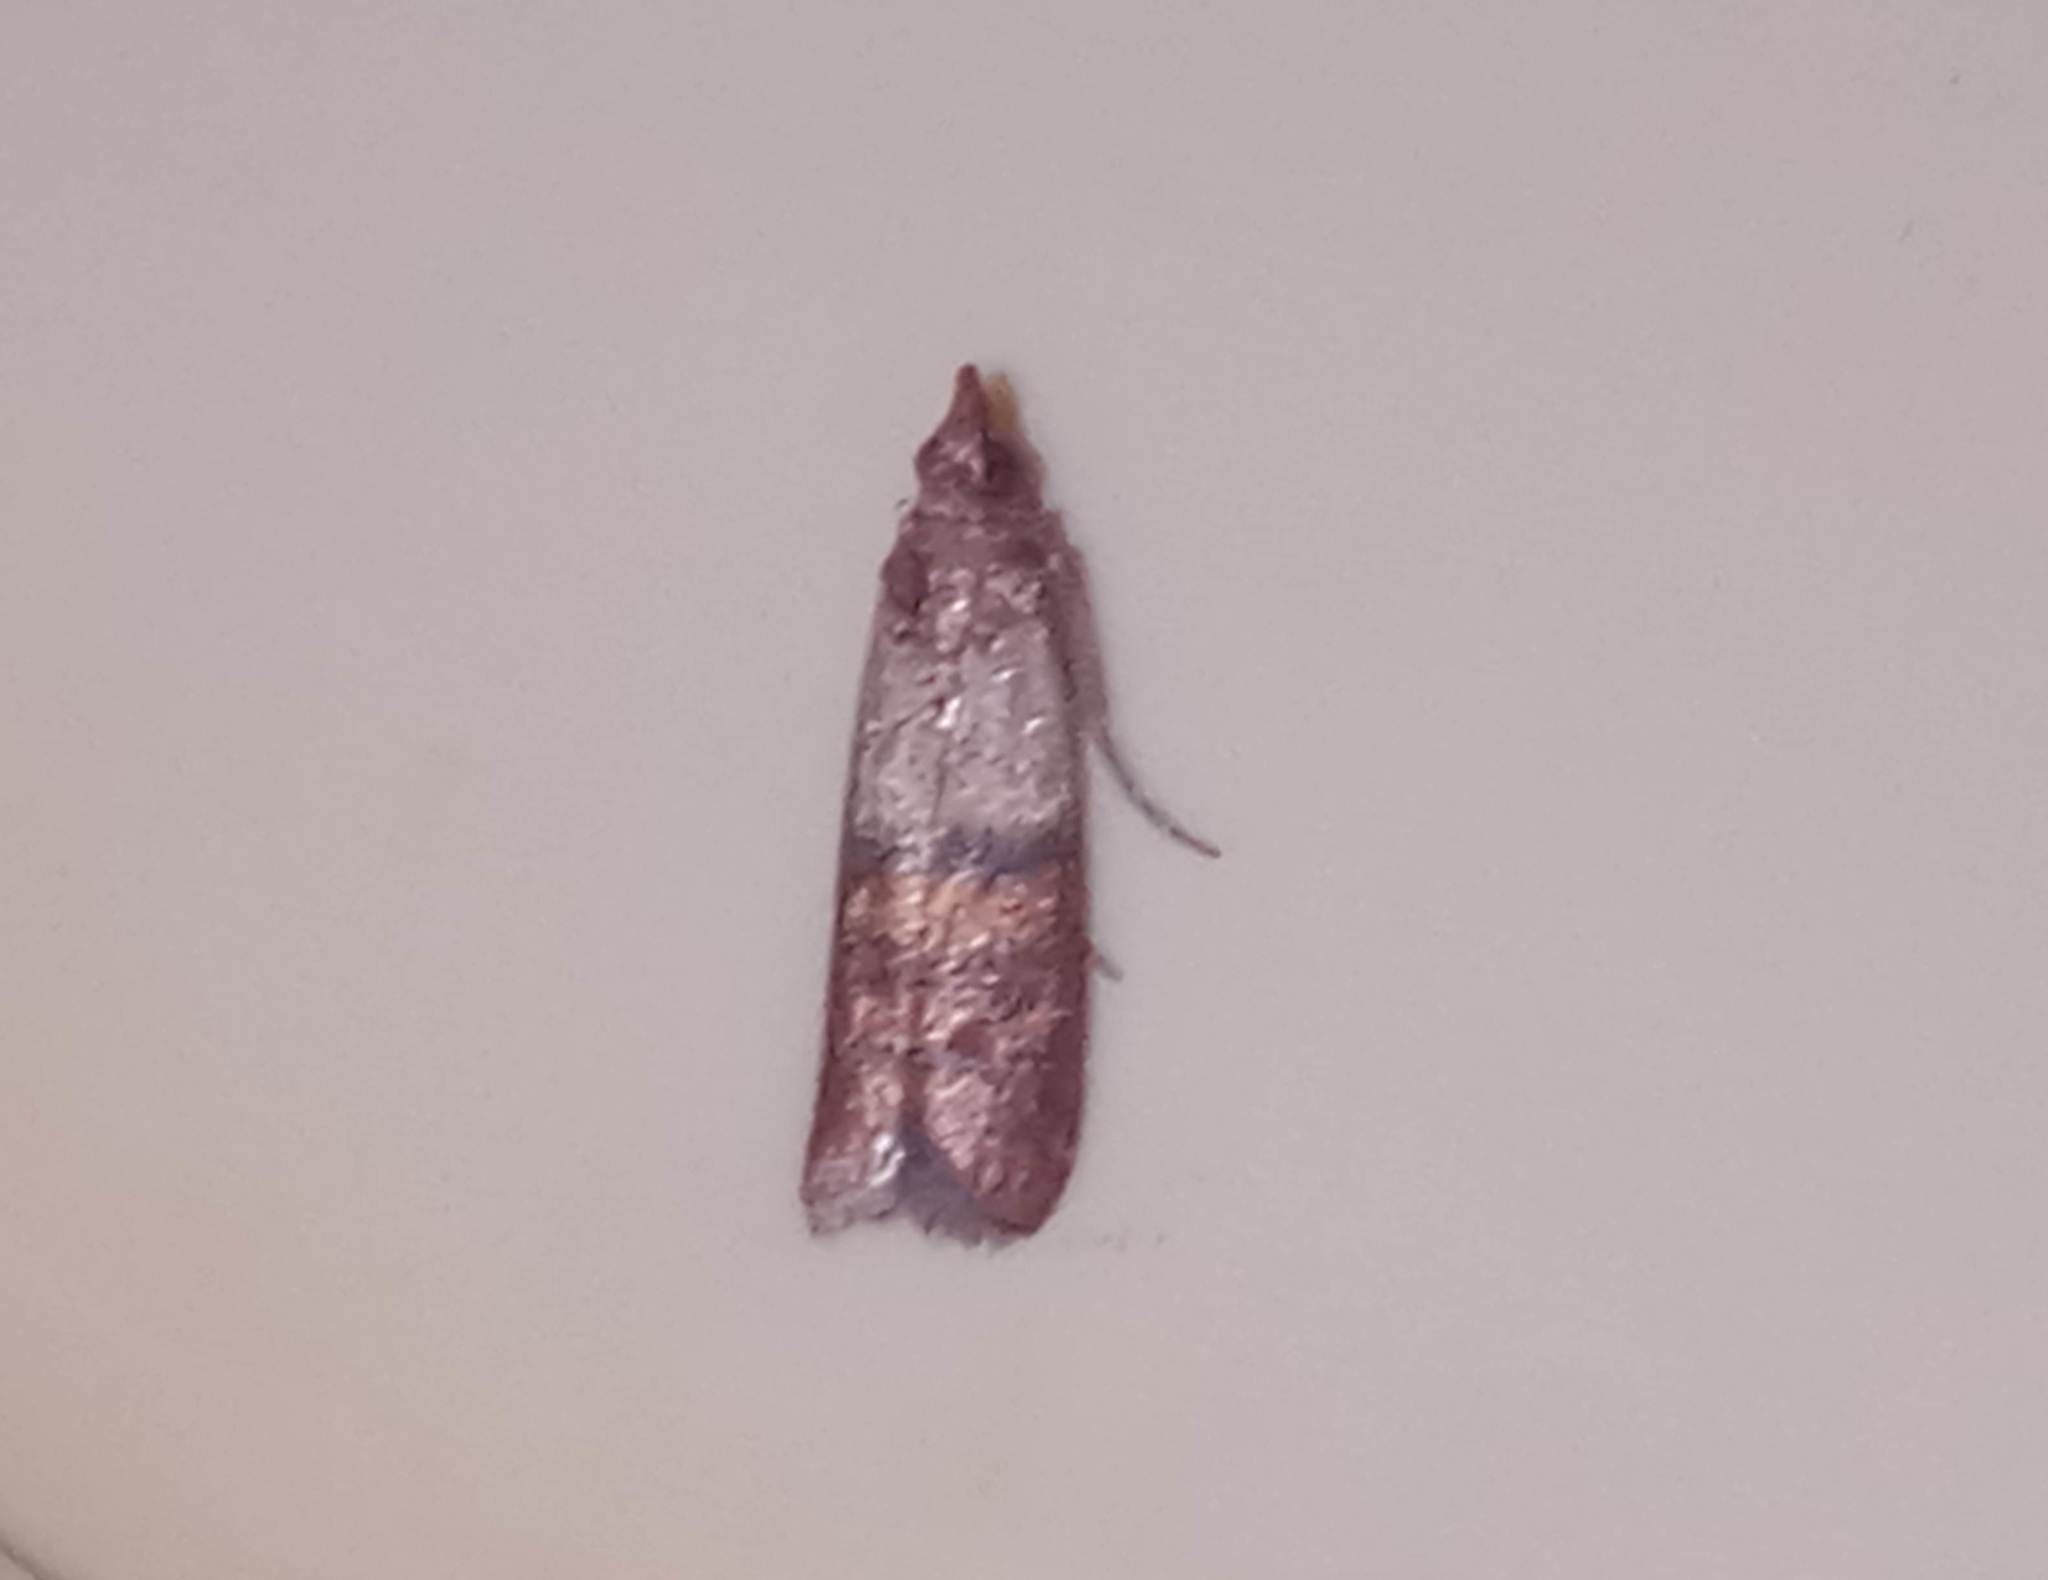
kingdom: Animalia
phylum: Arthropoda
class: Insecta
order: Lepidoptera
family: Pyralidae
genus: Plodia
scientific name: Plodia interpunctella
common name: Indian meal moth
